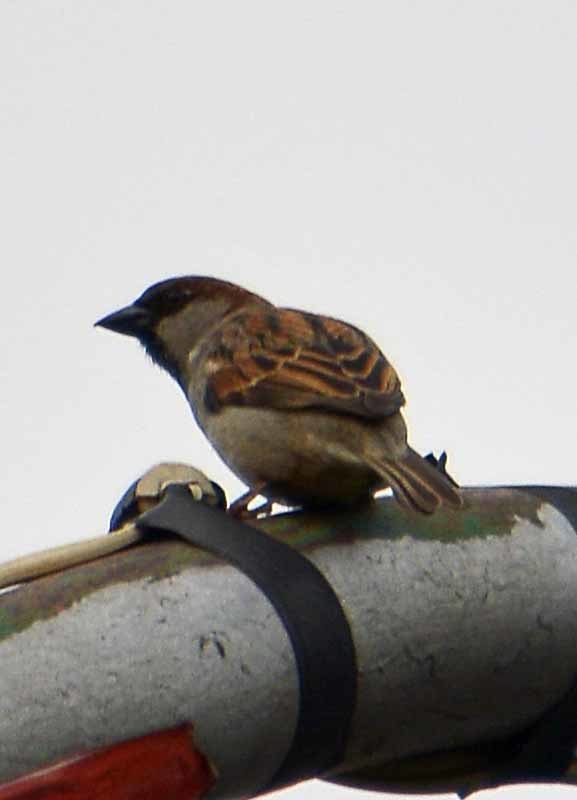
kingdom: Animalia
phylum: Chordata
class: Aves
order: Passeriformes
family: Passeridae
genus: Passer
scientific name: Passer domesticus
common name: House sparrow
